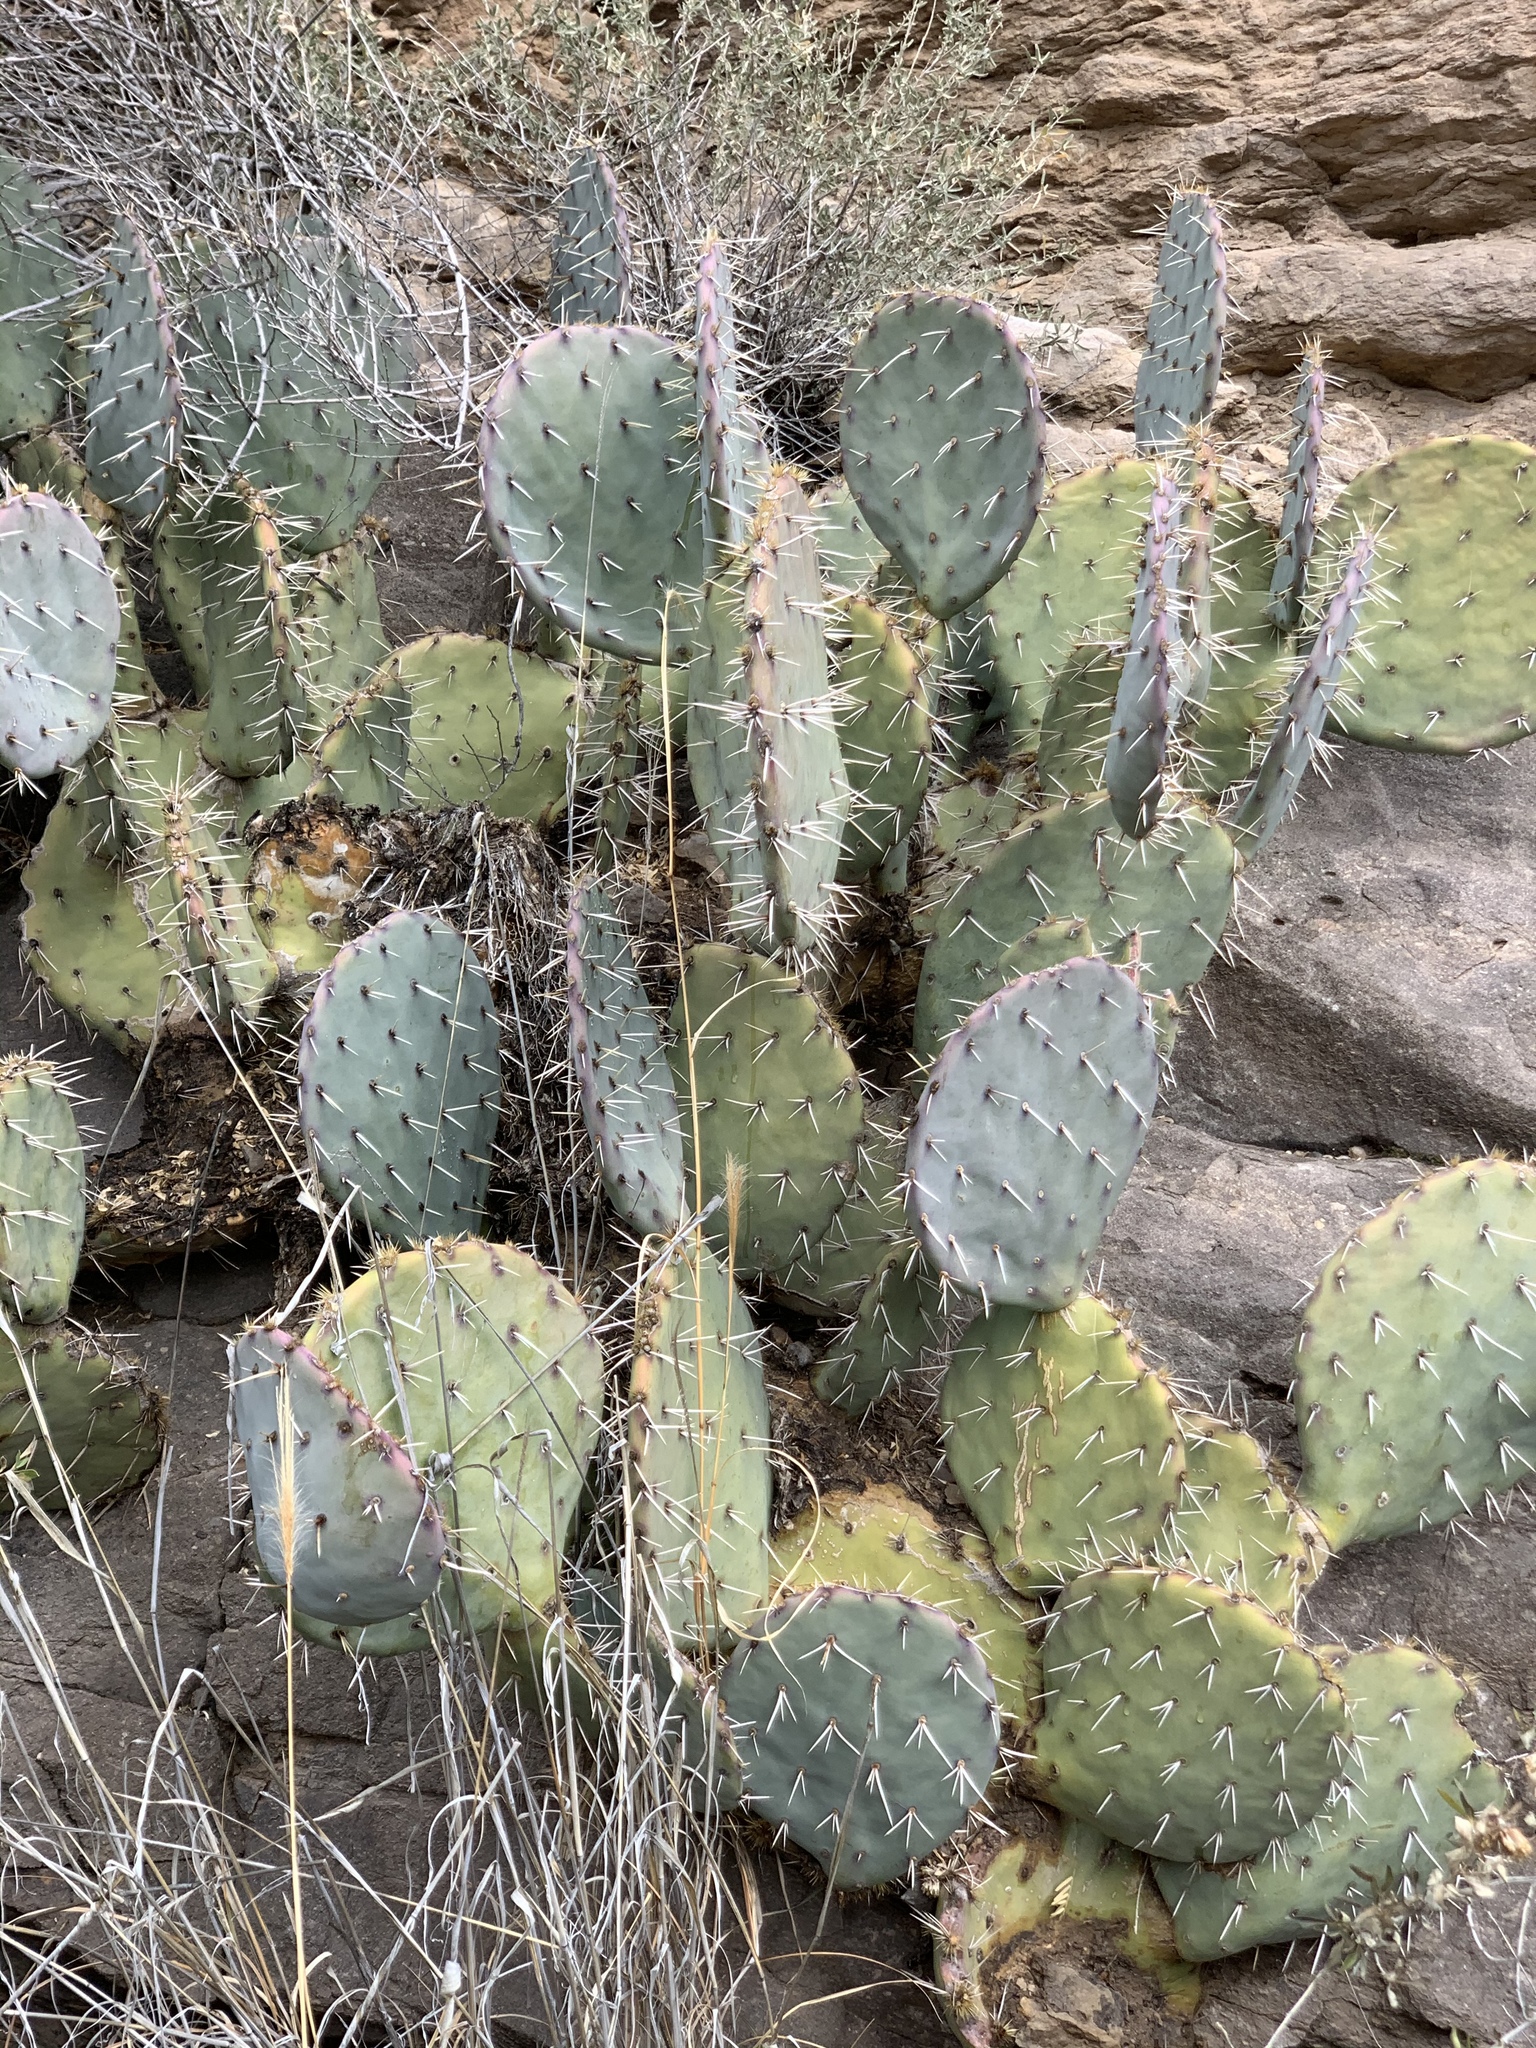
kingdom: Plantae
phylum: Tracheophyta
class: Magnoliopsida
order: Caryophyllales
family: Cactaceae
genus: Opuntia
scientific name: Opuntia engelmannii
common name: Cactus-apple
